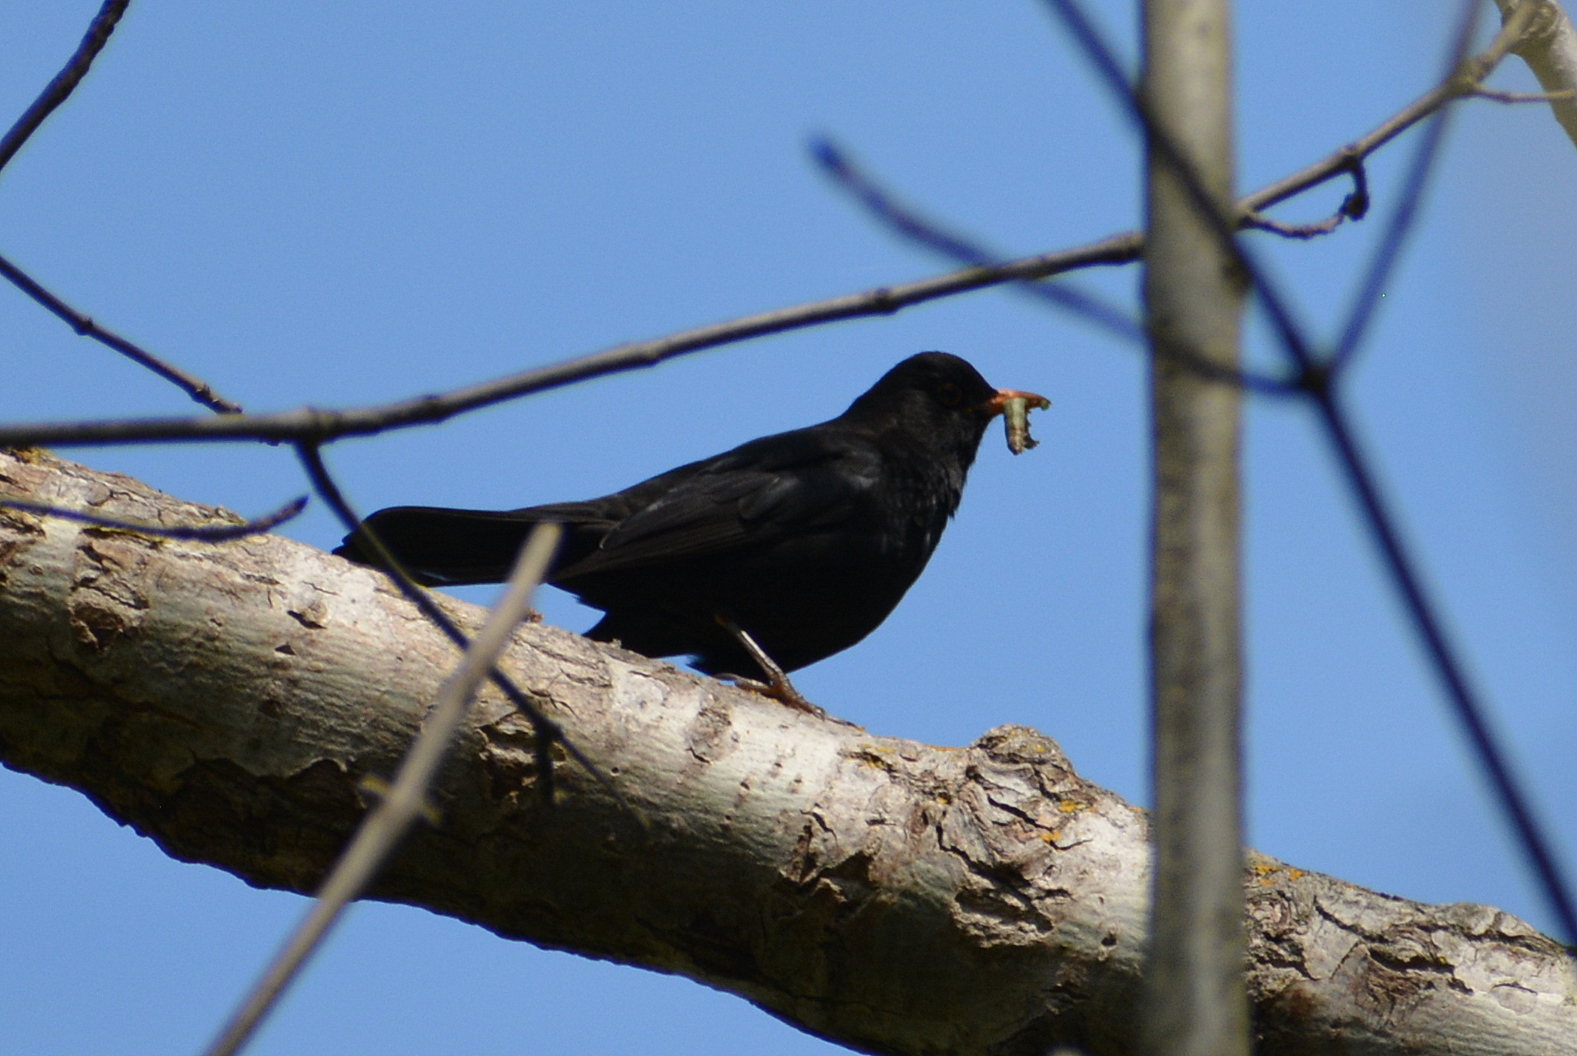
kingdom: Animalia
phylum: Chordata
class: Aves
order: Passeriformes
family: Turdidae
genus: Turdus
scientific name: Turdus merula
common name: Common blackbird
